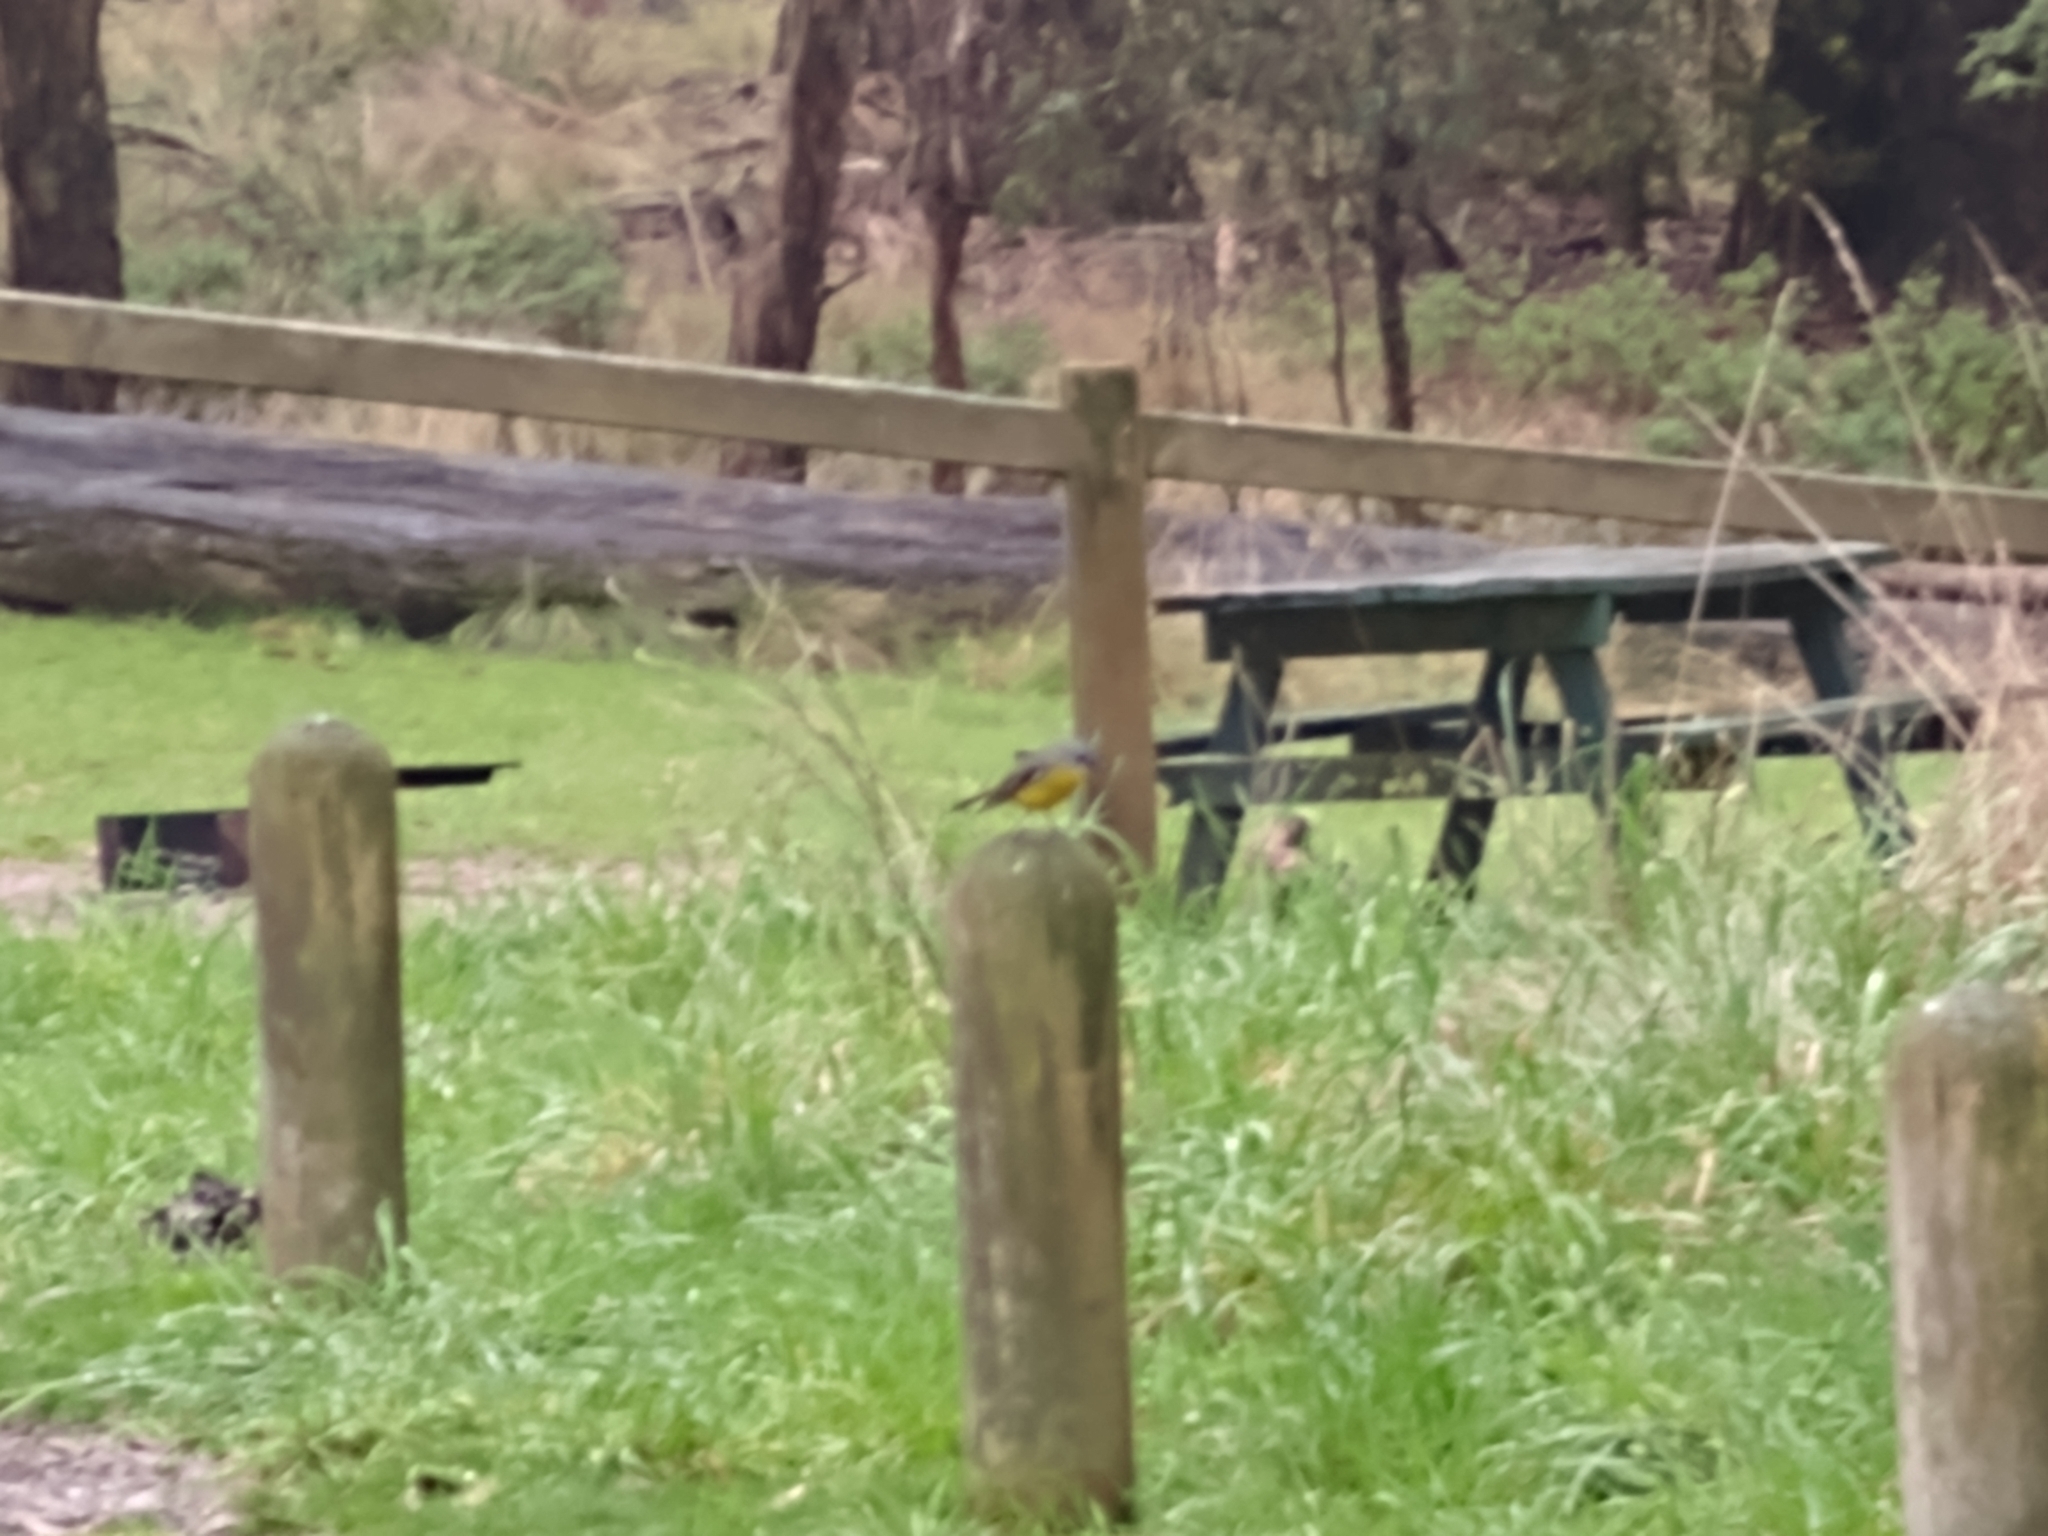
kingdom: Animalia
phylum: Chordata
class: Aves
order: Passeriformes
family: Petroicidae
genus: Eopsaltria
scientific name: Eopsaltria australis
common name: Eastern yellow robin
